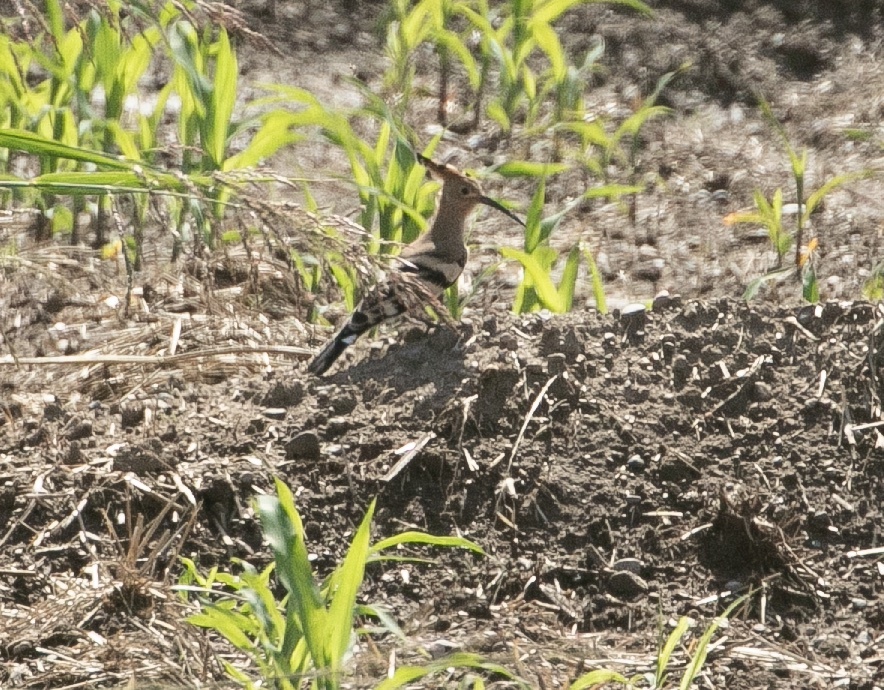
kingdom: Animalia
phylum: Chordata
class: Aves
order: Bucerotiformes
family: Upupidae
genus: Upupa
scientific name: Upupa epops
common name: Eurasian hoopoe
